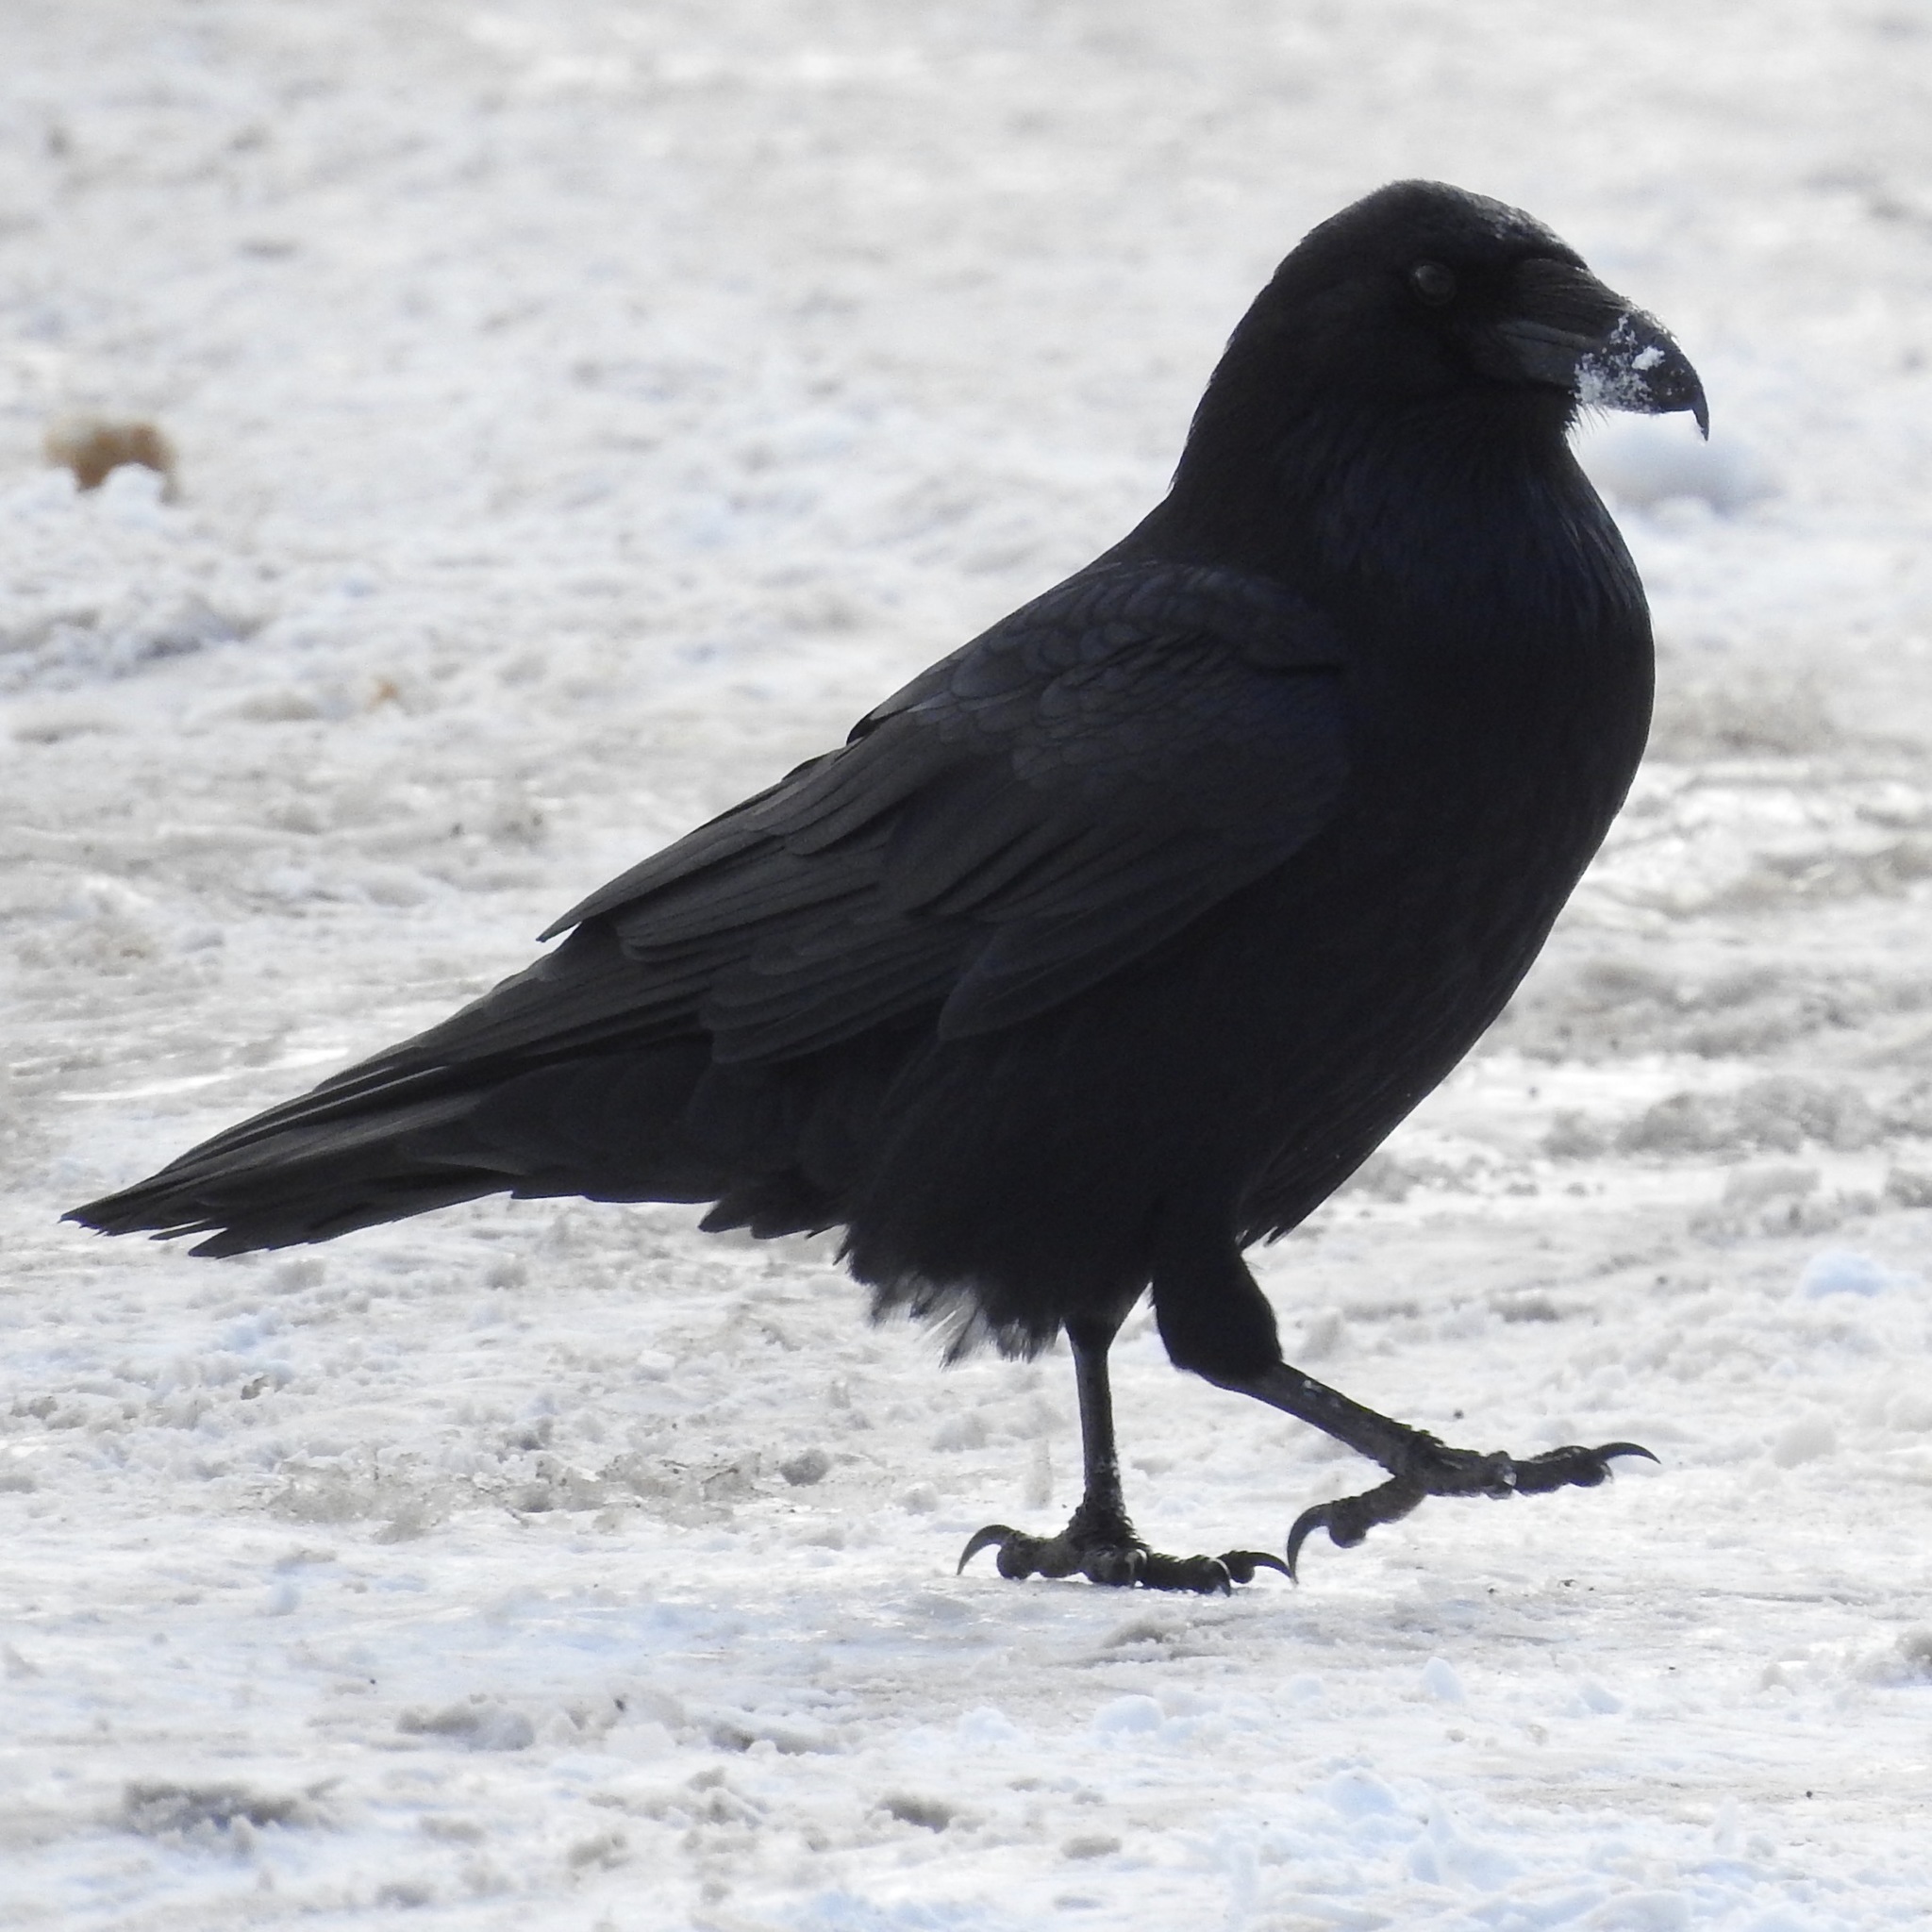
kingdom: Animalia
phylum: Chordata
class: Aves
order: Passeriformes
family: Corvidae
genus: Corvus
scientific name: Corvus corax
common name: Common raven
